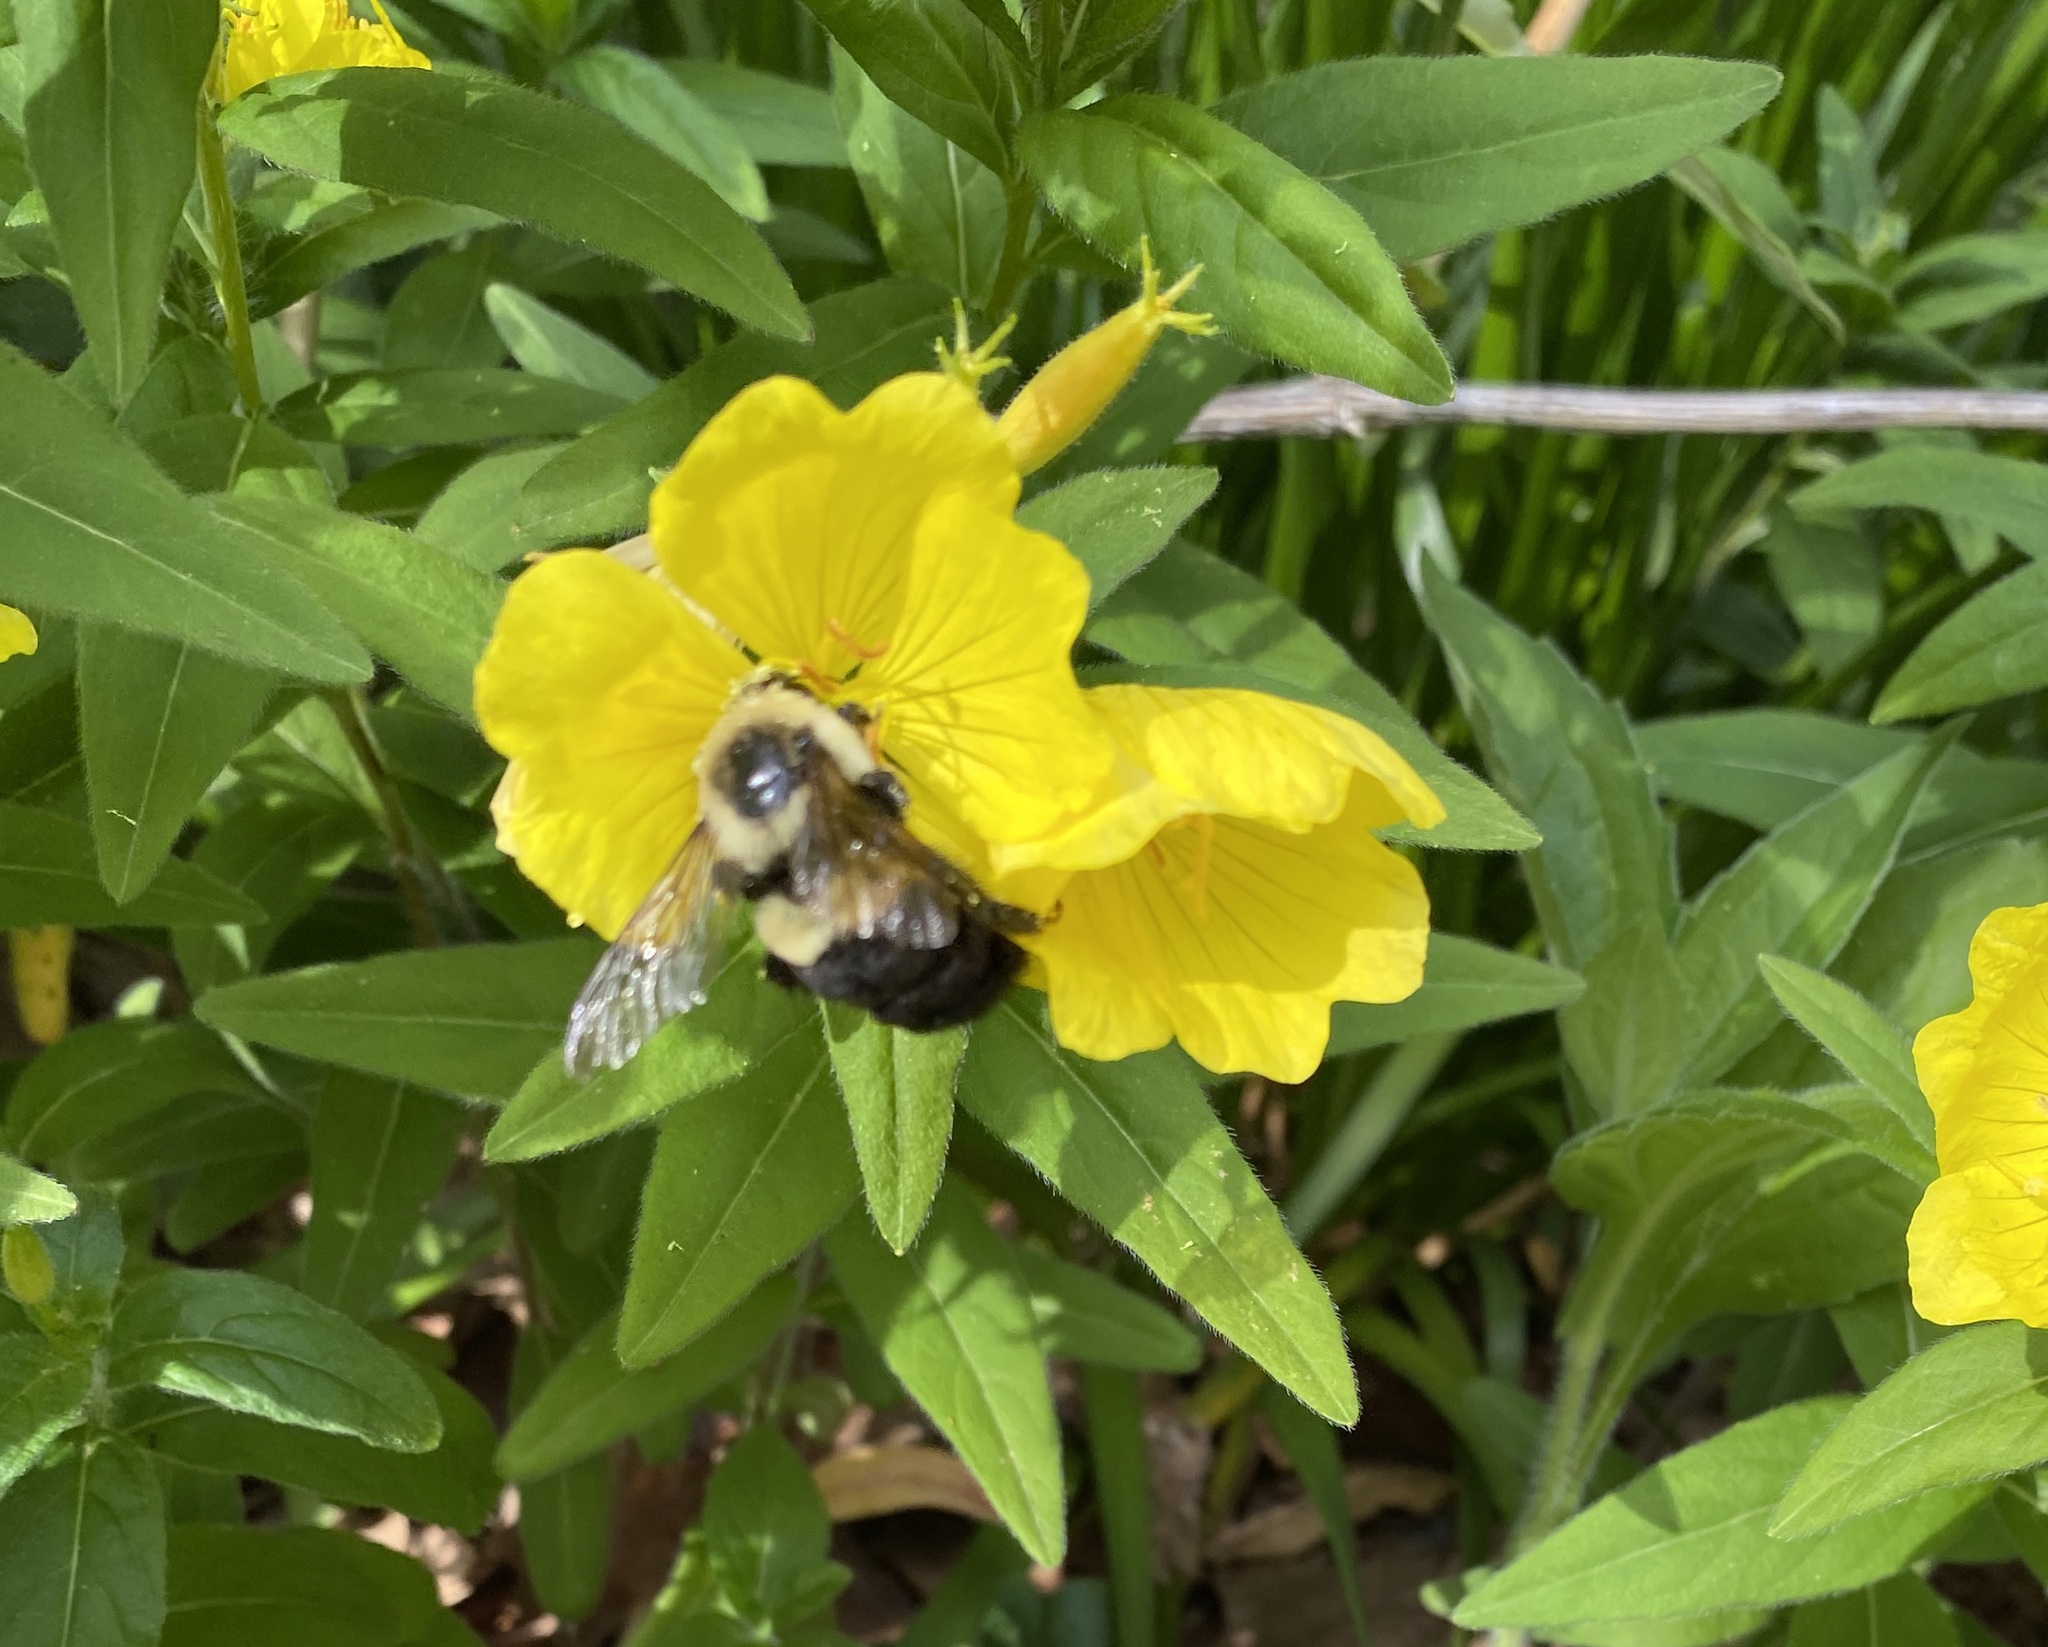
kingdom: Animalia
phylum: Arthropoda
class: Insecta
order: Hymenoptera
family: Apidae
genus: Bombus
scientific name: Bombus impatiens
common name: Common eastern bumble bee
